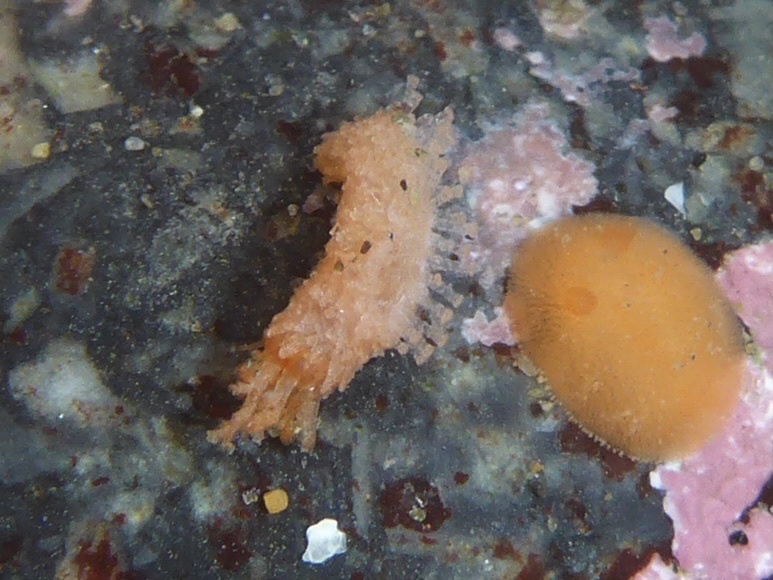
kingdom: Animalia
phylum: Echinodermata
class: Holothuroidea
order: Dendrochirotida
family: Psolidae
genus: Lissothuria
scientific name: Lissothuria nutriens
